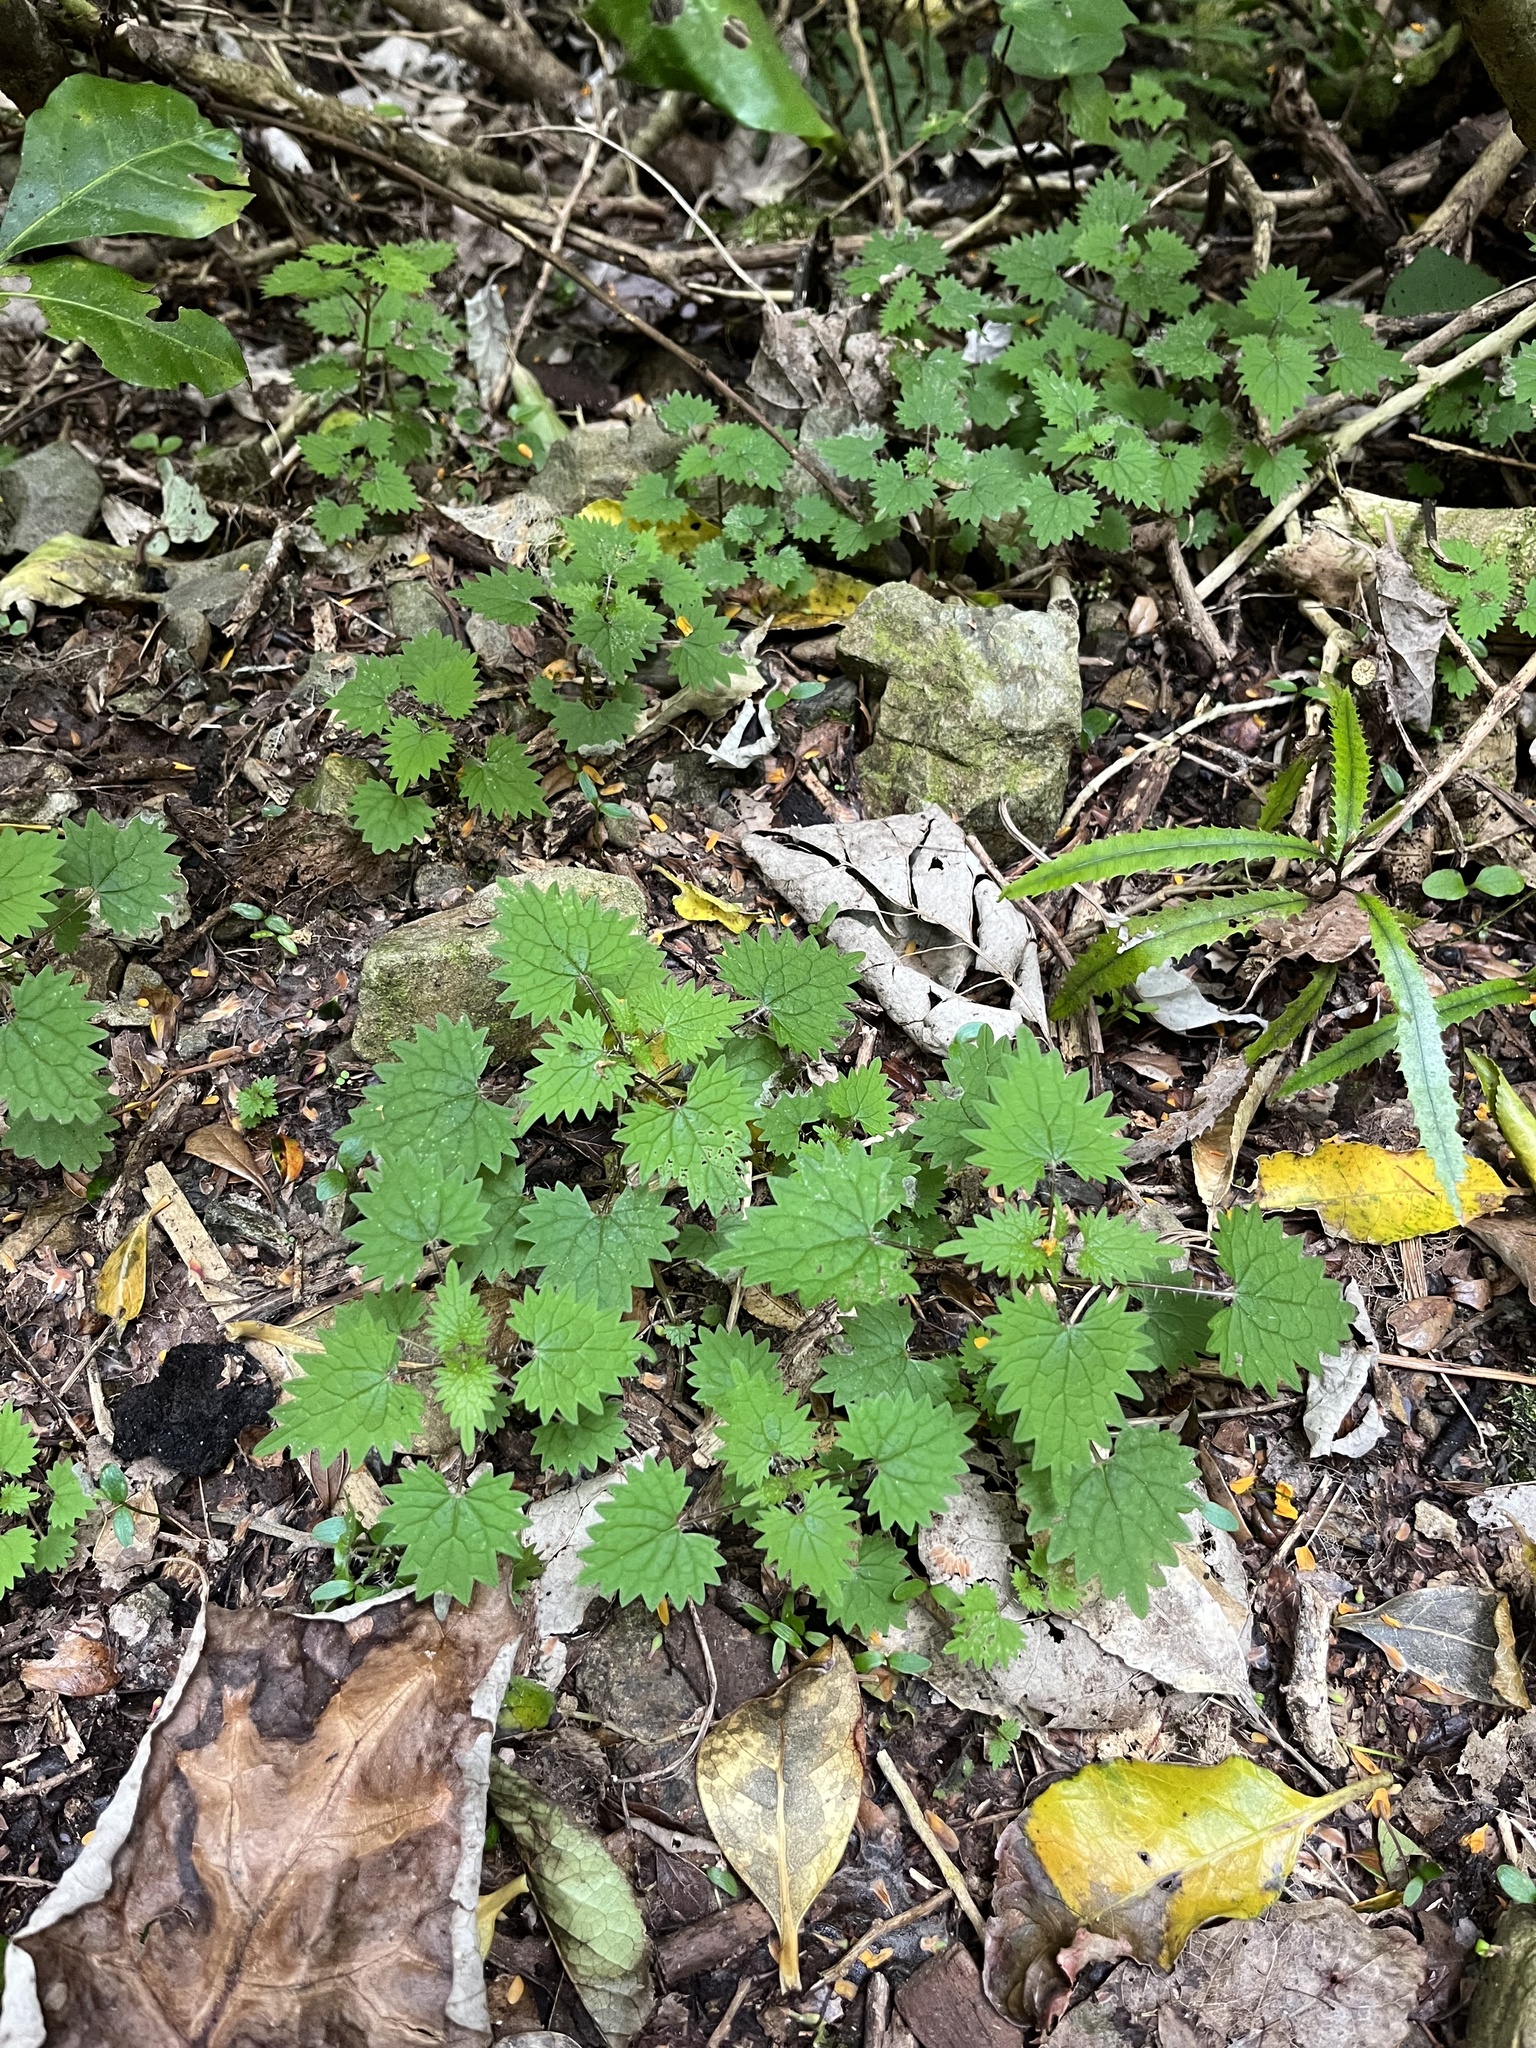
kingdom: Plantae
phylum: Tracheophyta
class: Magnoliopsida
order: Rosales
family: Urticaceae
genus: Urtica
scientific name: Urtica sykesii
